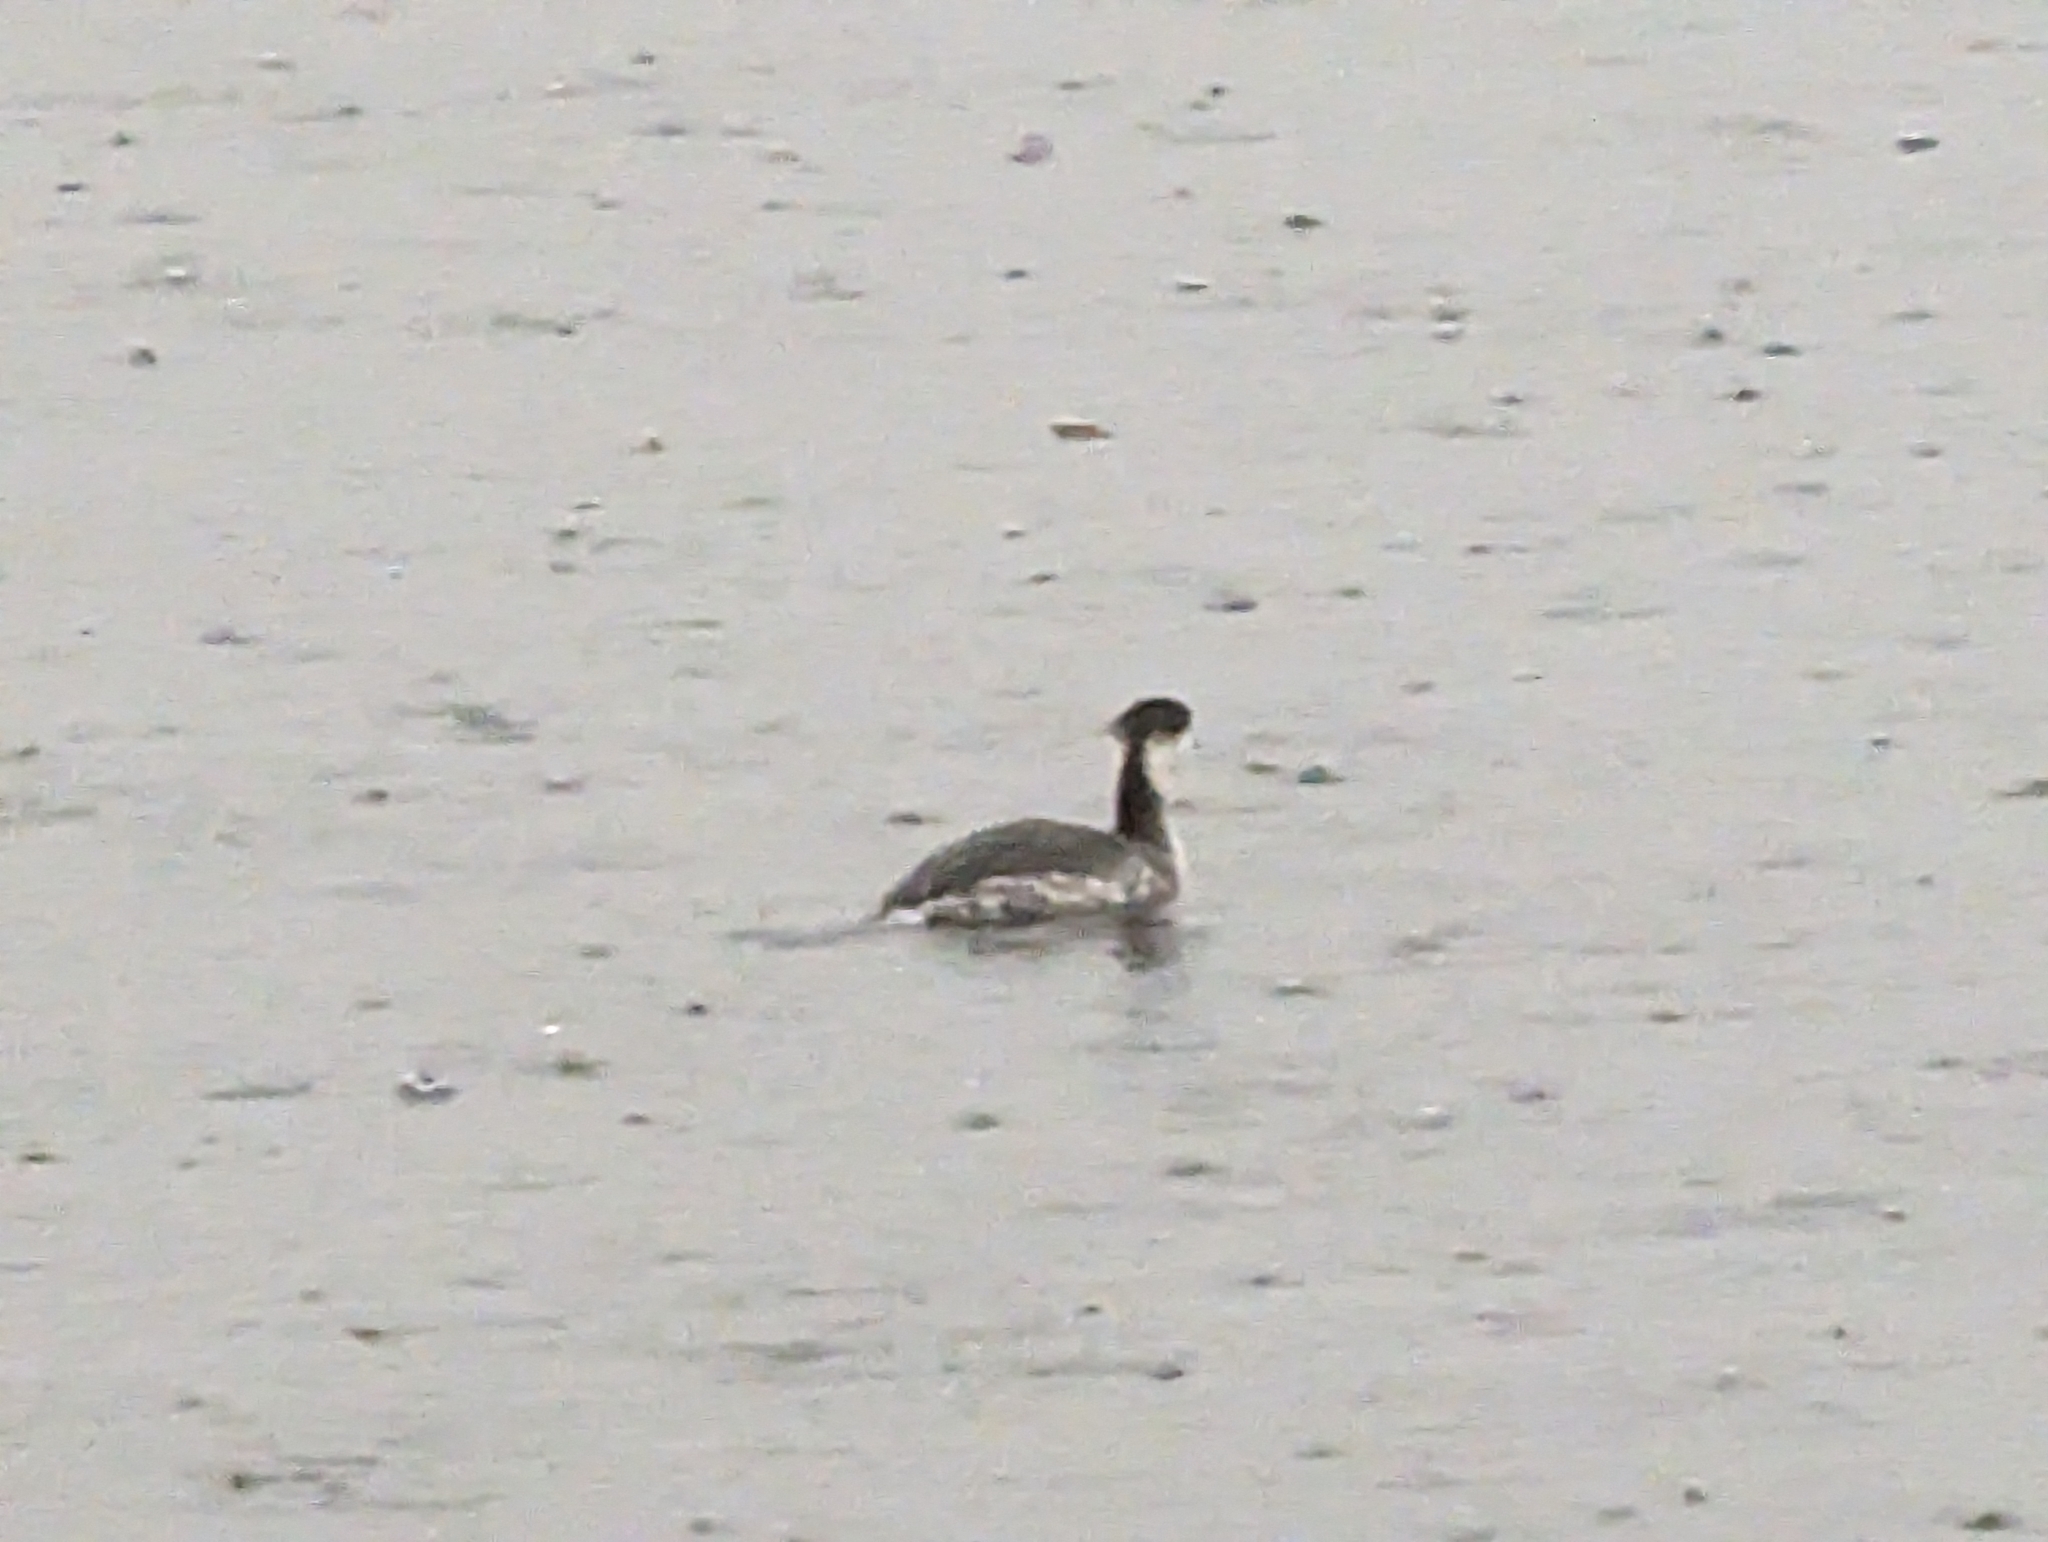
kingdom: Animalia
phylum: Chordata
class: Aves
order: Podicipediformes
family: Podicipedidae
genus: Podiceps
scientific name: Podiceps auritus
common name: Horned grebe
